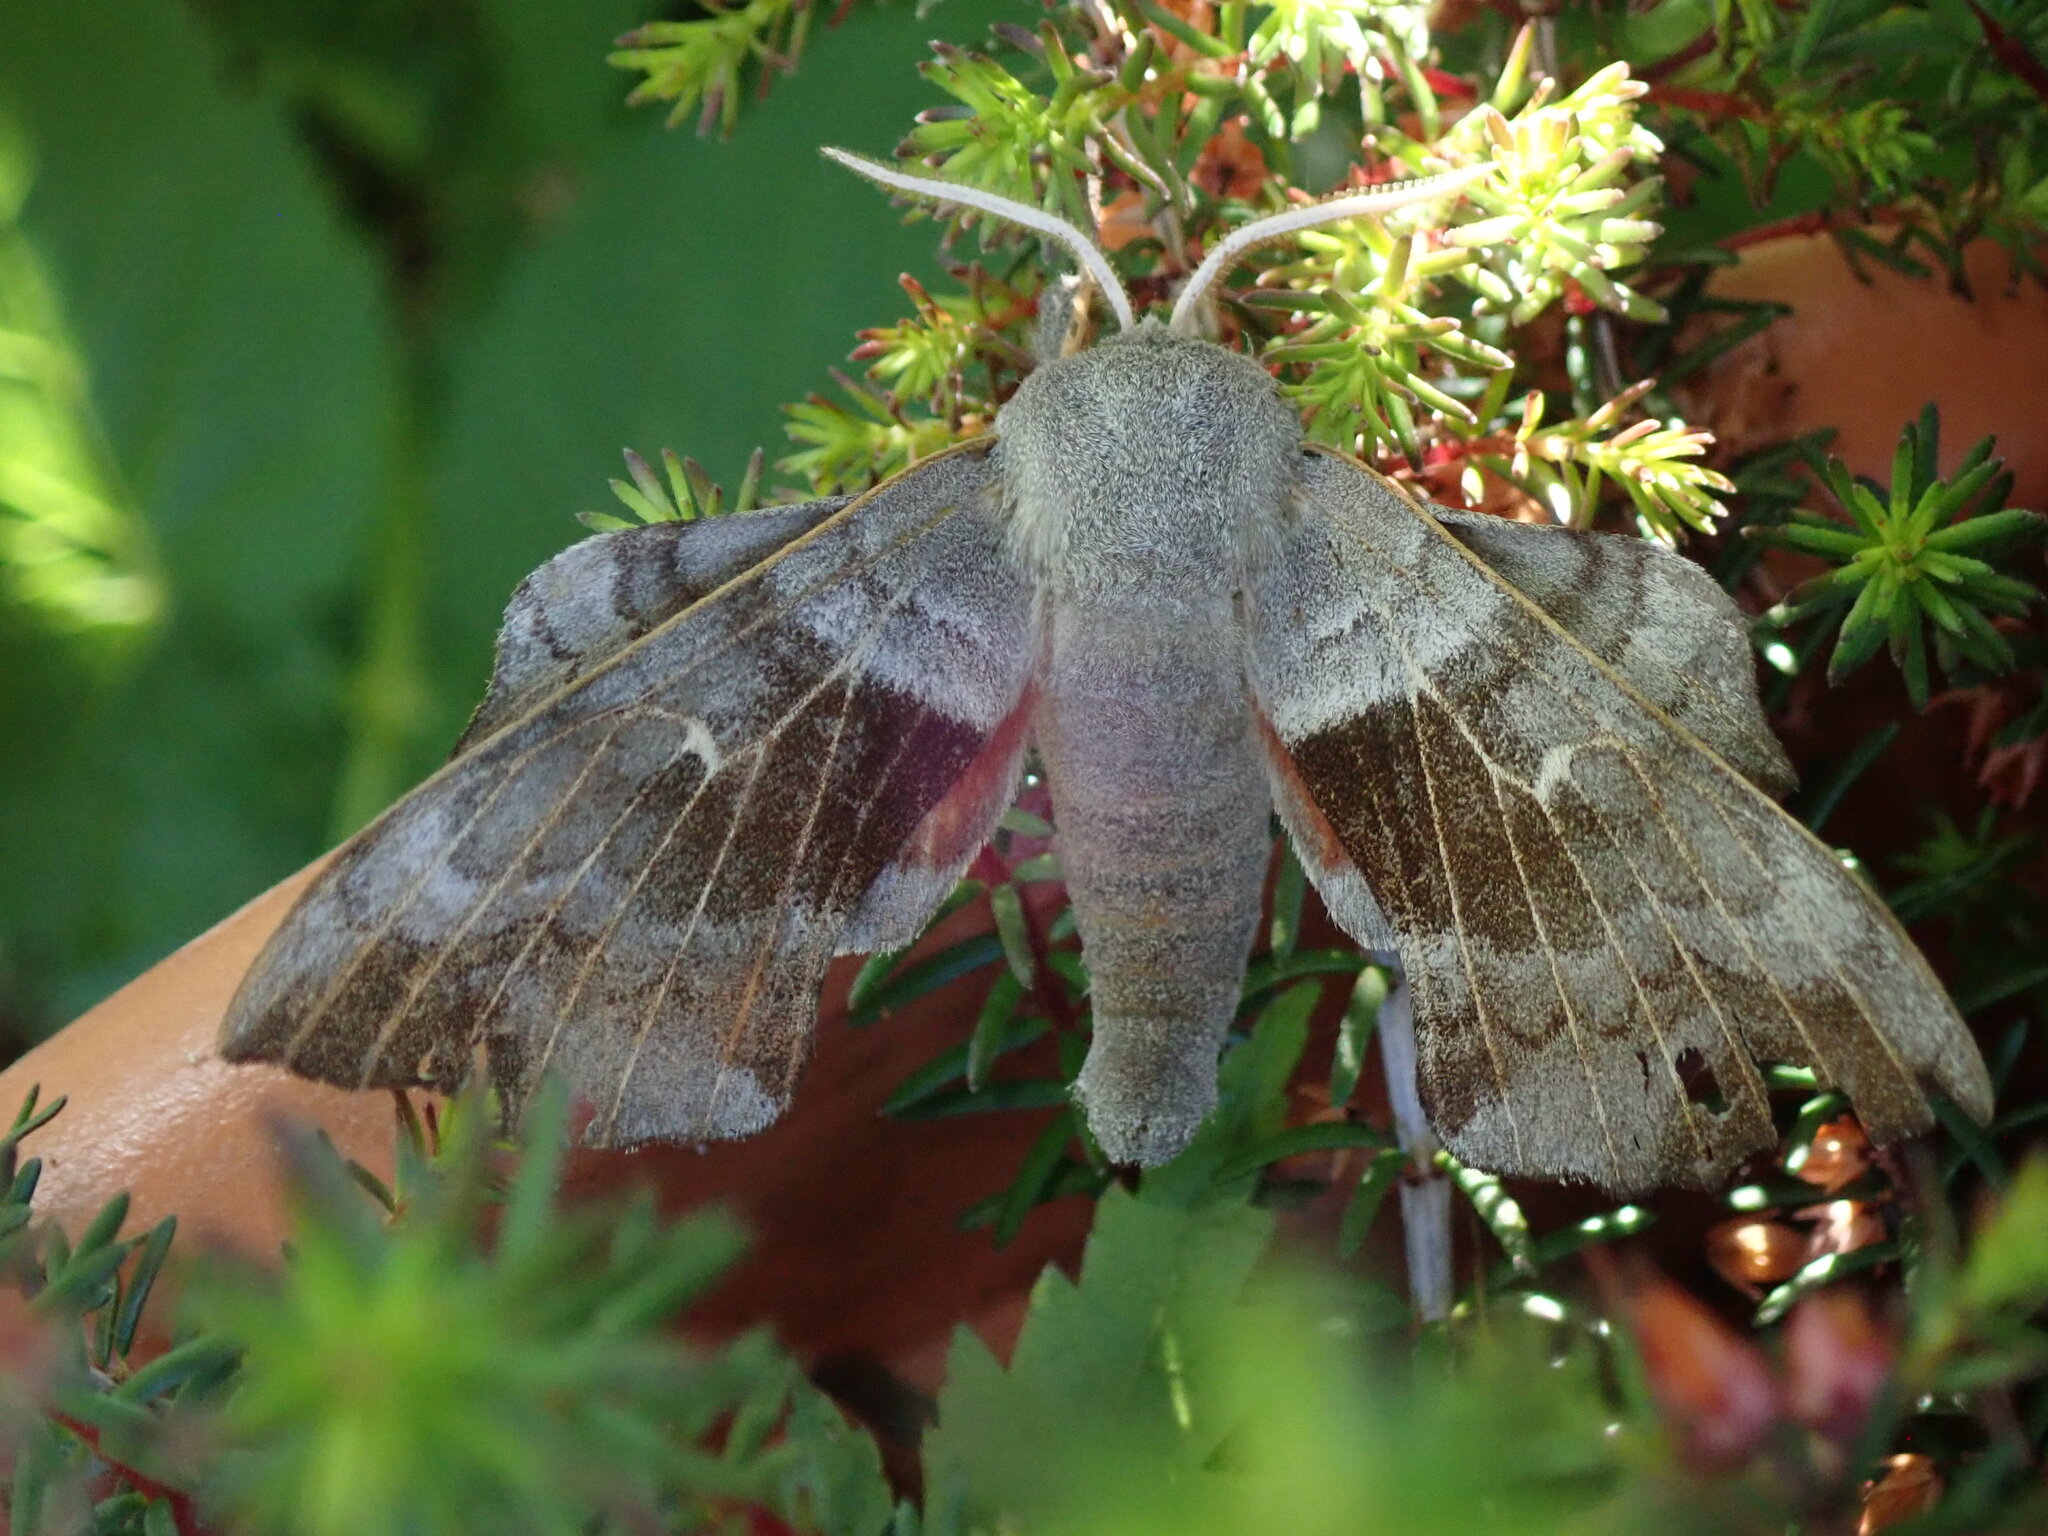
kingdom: Animalia
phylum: Arthropoda
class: Insecta
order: Lepidoptera
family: Sphingidae
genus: Laothoe
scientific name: Laothoe populi
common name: Poplar hawk-moth
